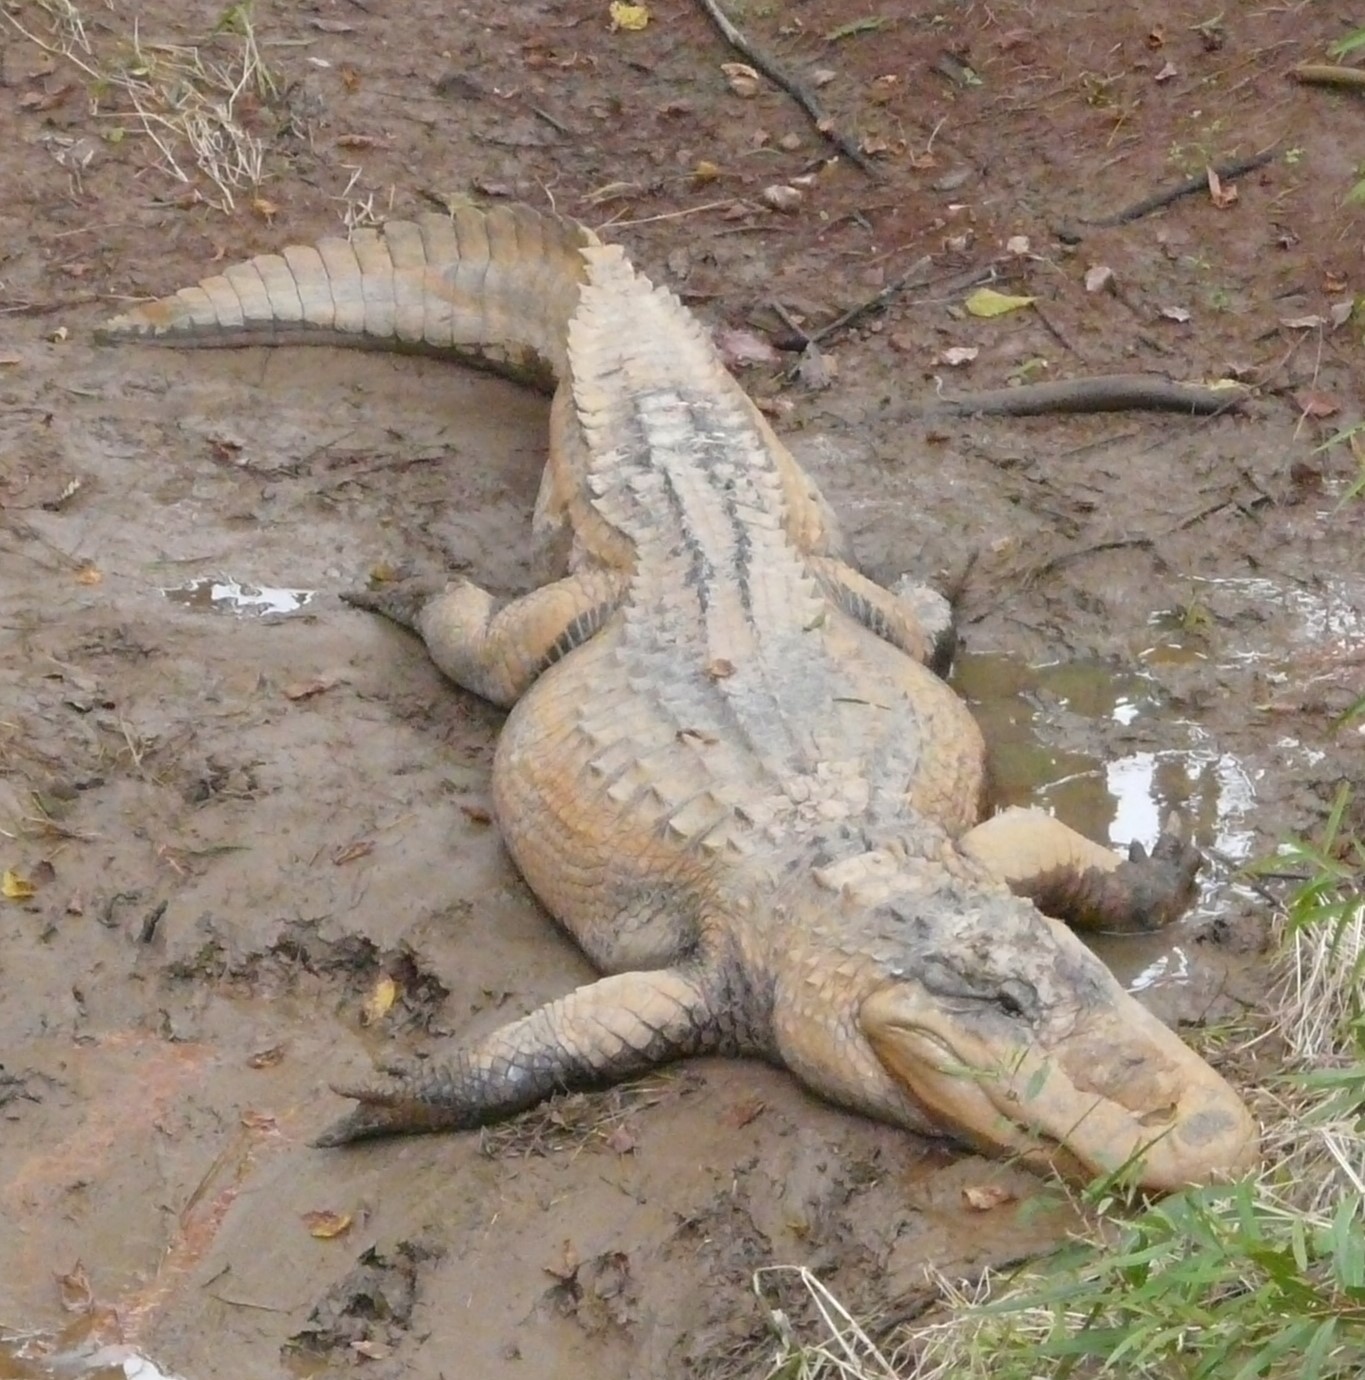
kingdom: Animalia
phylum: Chordata
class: Crocodylia
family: Alligatoridae
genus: Alligator
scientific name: Alligator mississippiensis
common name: American alligator
